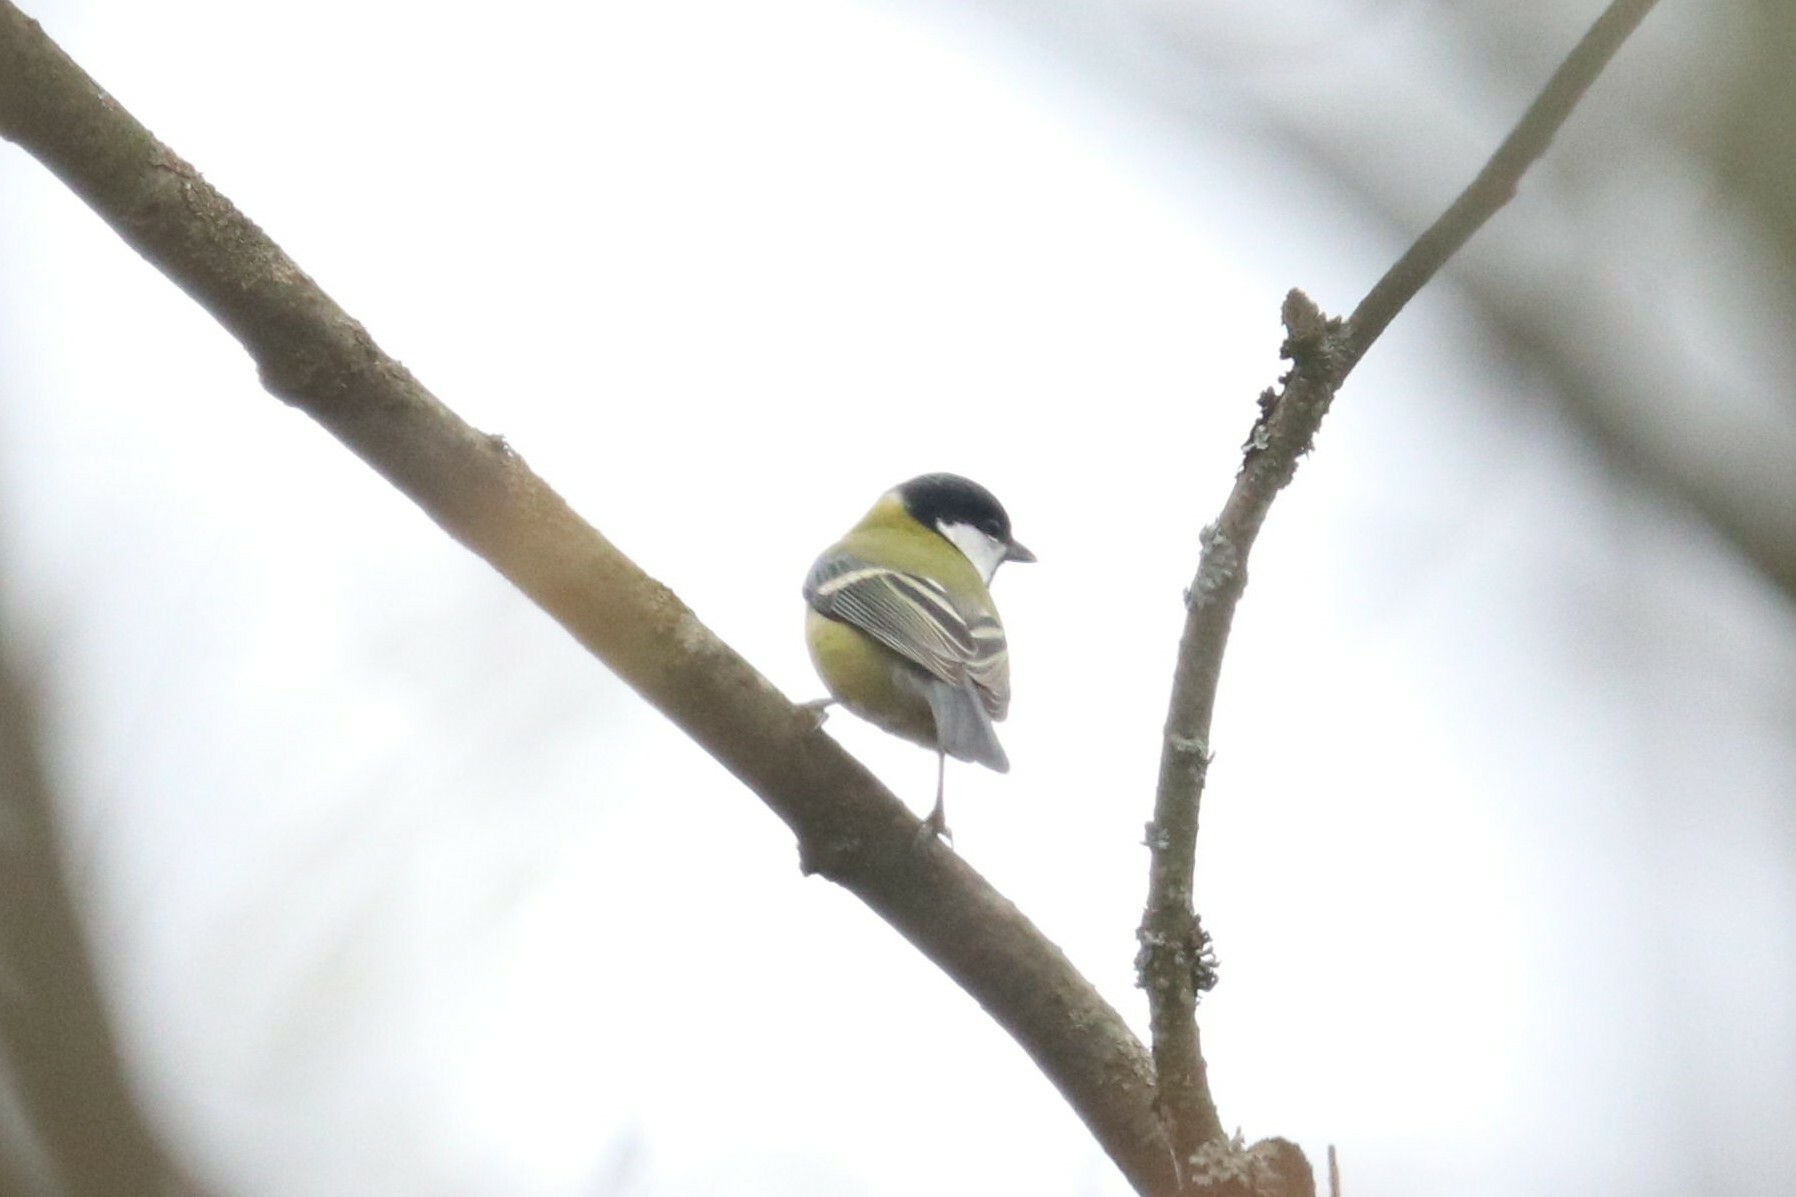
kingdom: Animalia
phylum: Chordata
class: Aves
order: Passeriformes
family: Paridae
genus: Parus
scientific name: Parus major
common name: Great tit
